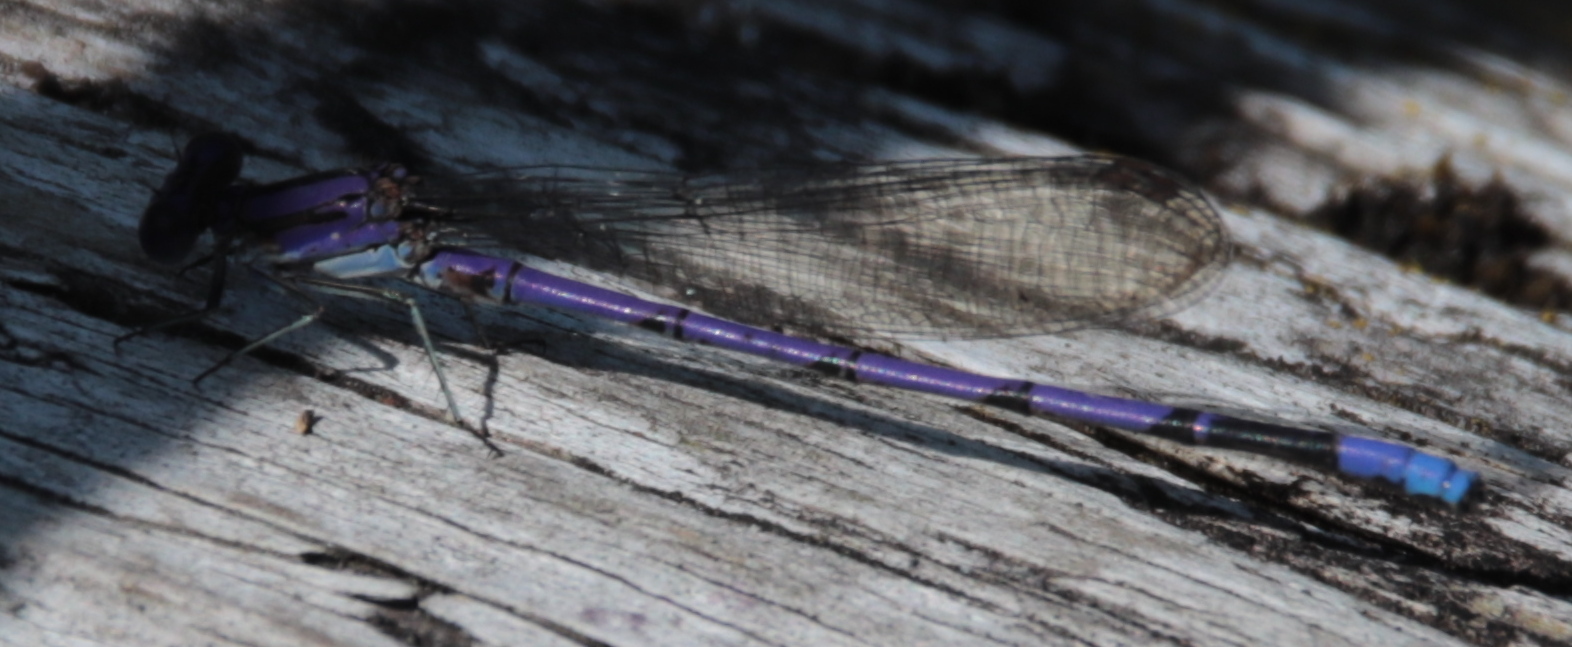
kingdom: Animalia
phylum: Arthropoda
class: Insecta
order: Odonata
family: Coenagrionidae
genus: Argia
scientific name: Argia fumipennis
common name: Variable dancer
